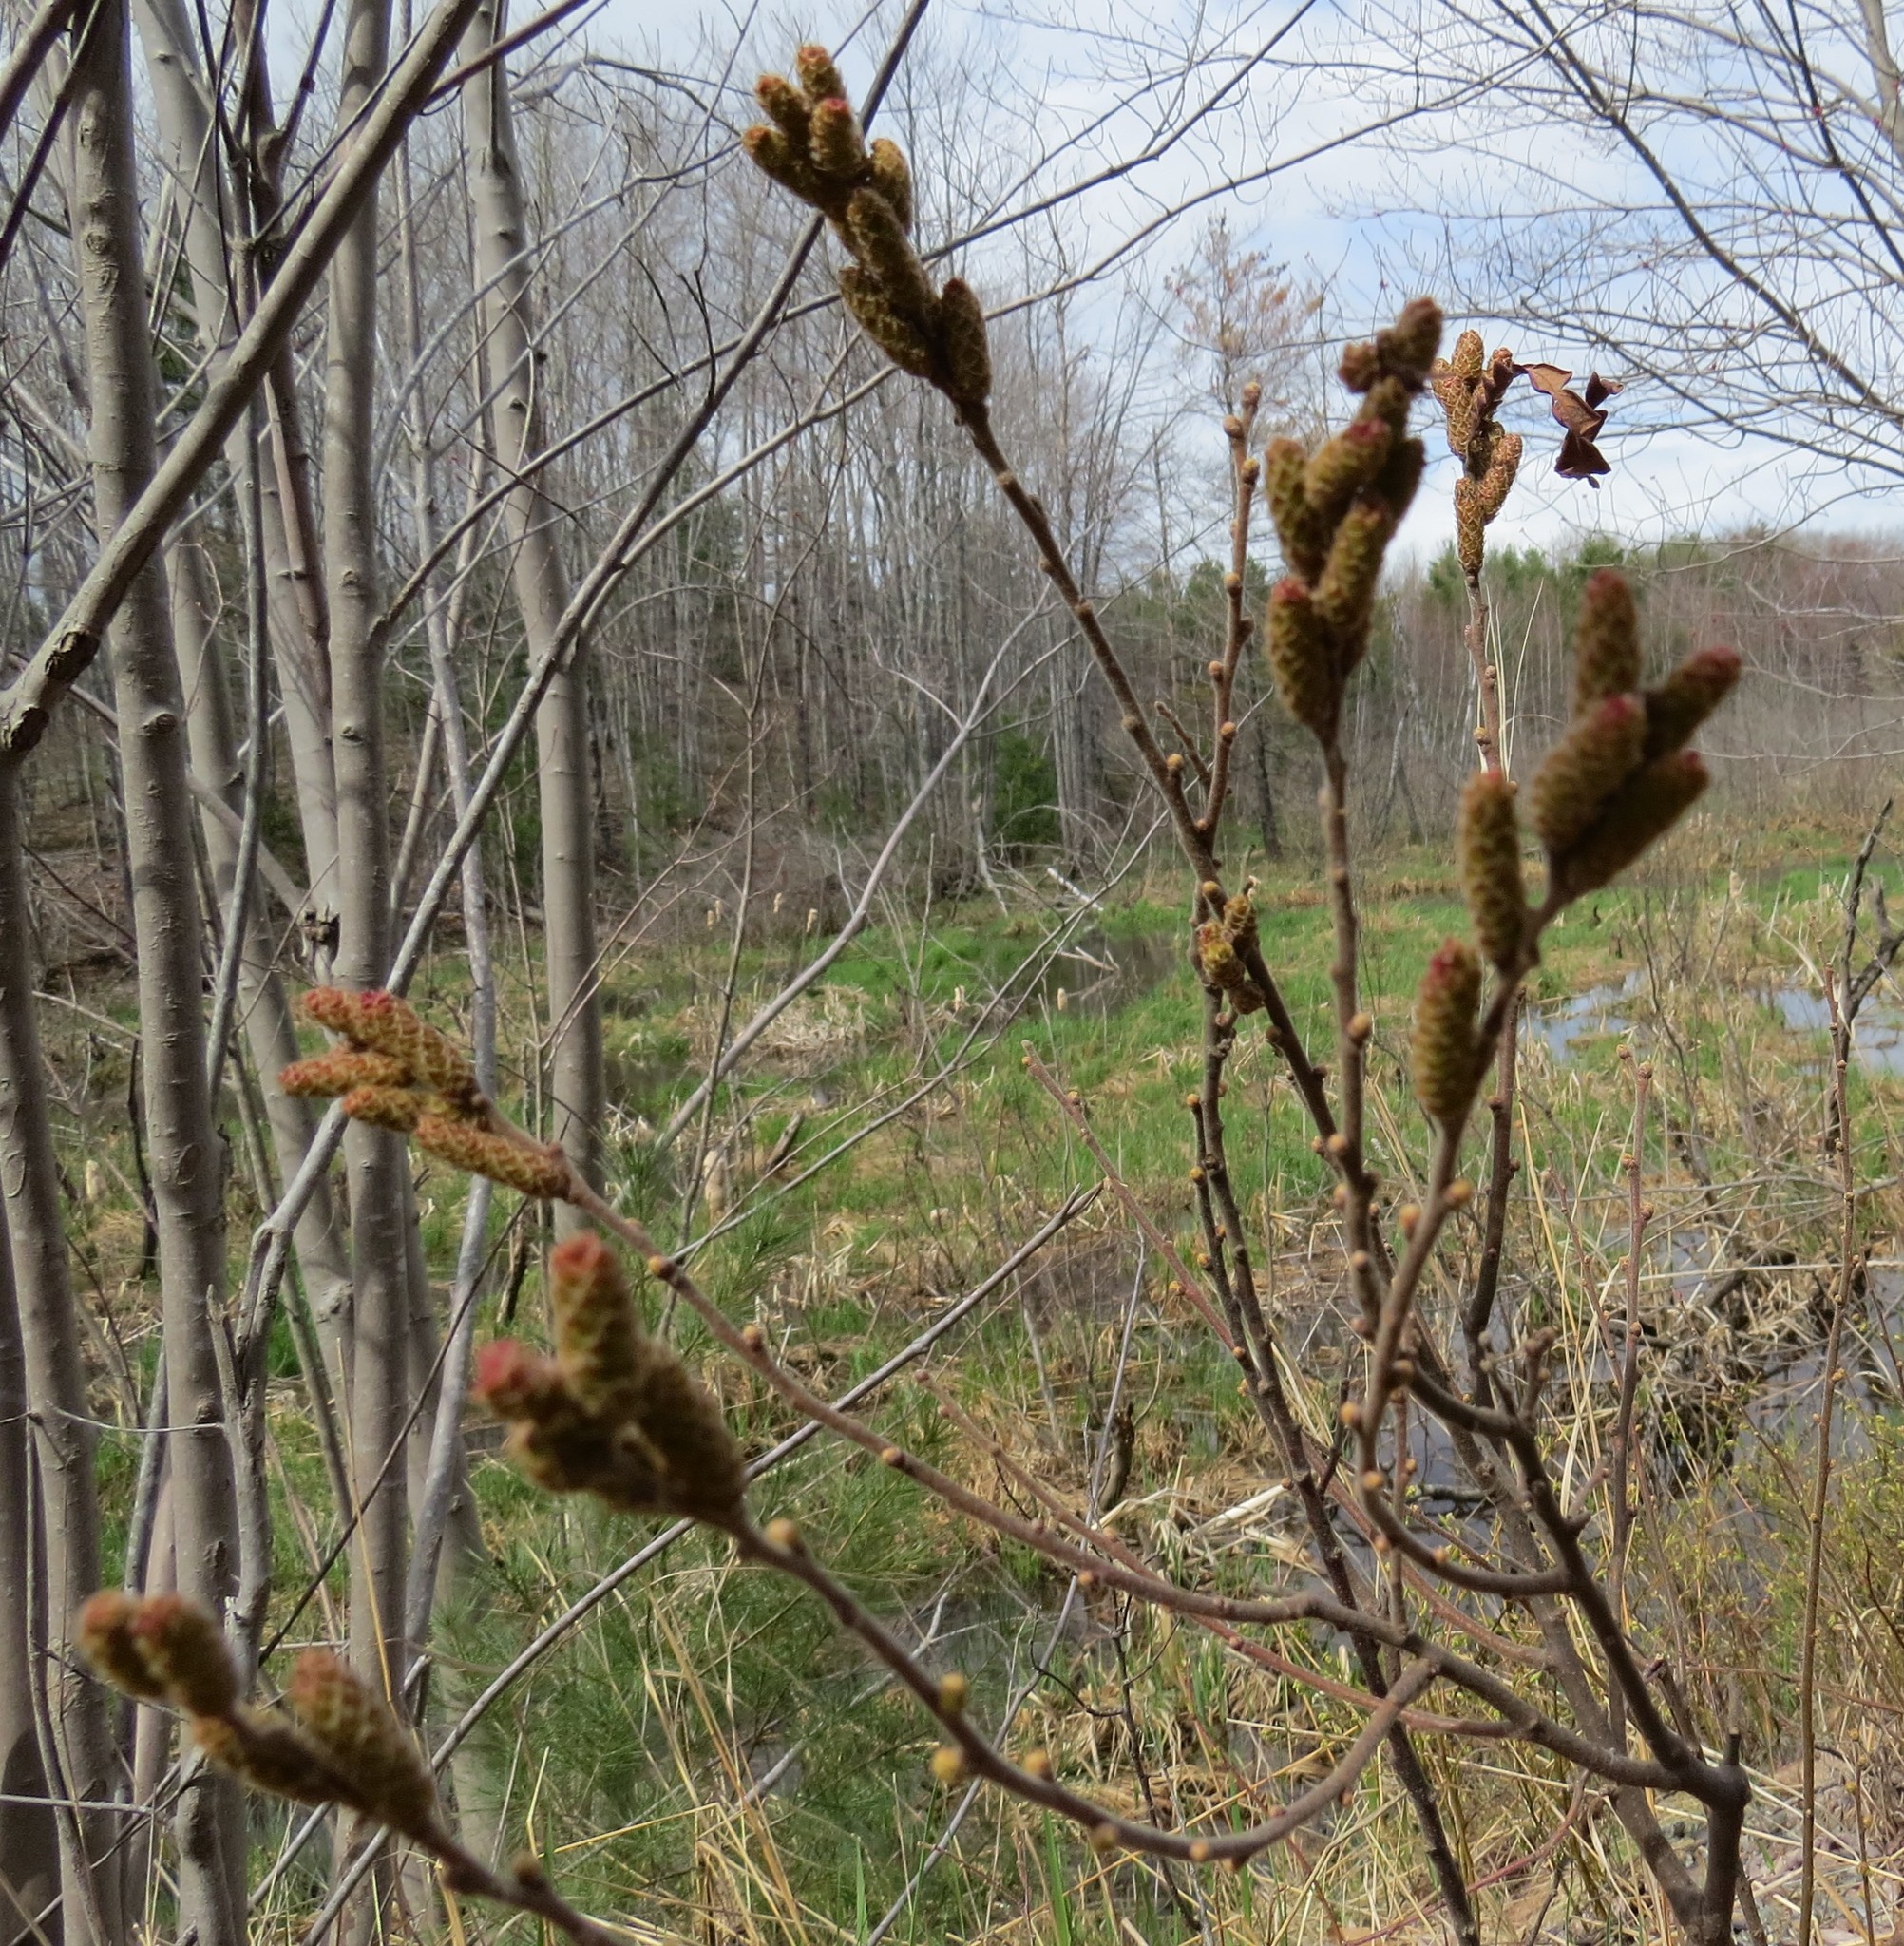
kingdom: Plantae
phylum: Tracheophyta
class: Magnoliopsida
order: Fagales
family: Myricaceae
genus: Comptonia
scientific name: Comptonia peregrina
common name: Sweet-fern
